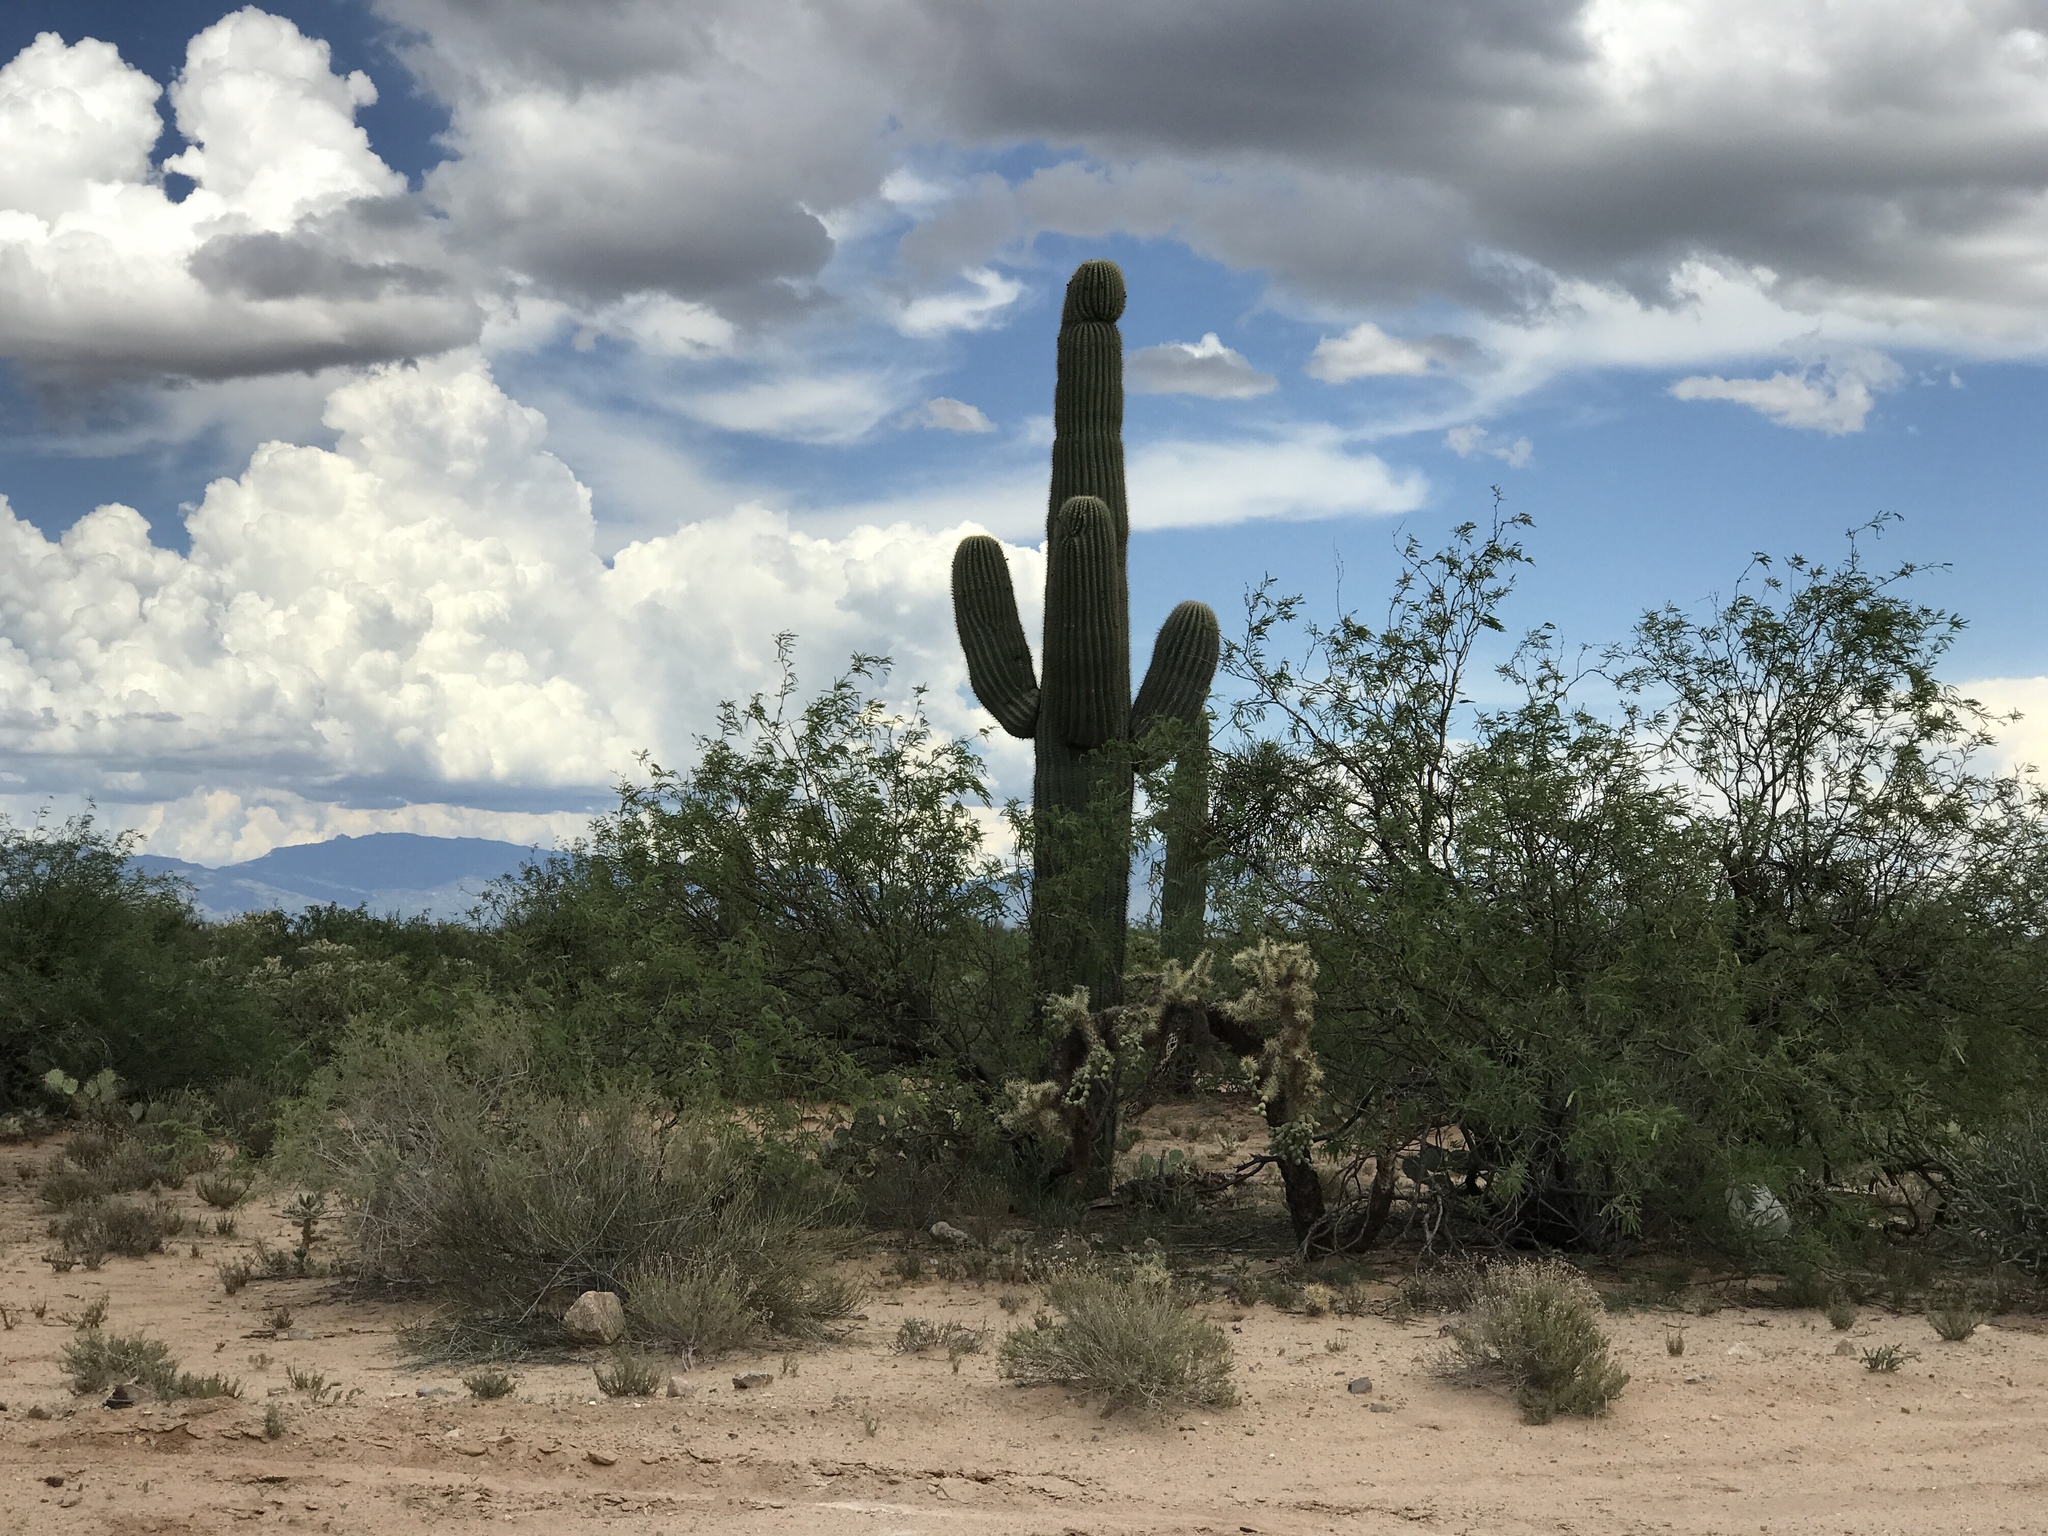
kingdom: Plantae
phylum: Tracheophyta
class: Magnoliopsida
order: Caryophyllales
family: Cactaceae
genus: Carnegiea
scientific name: Carnegiea gigantea
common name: Saguaro
